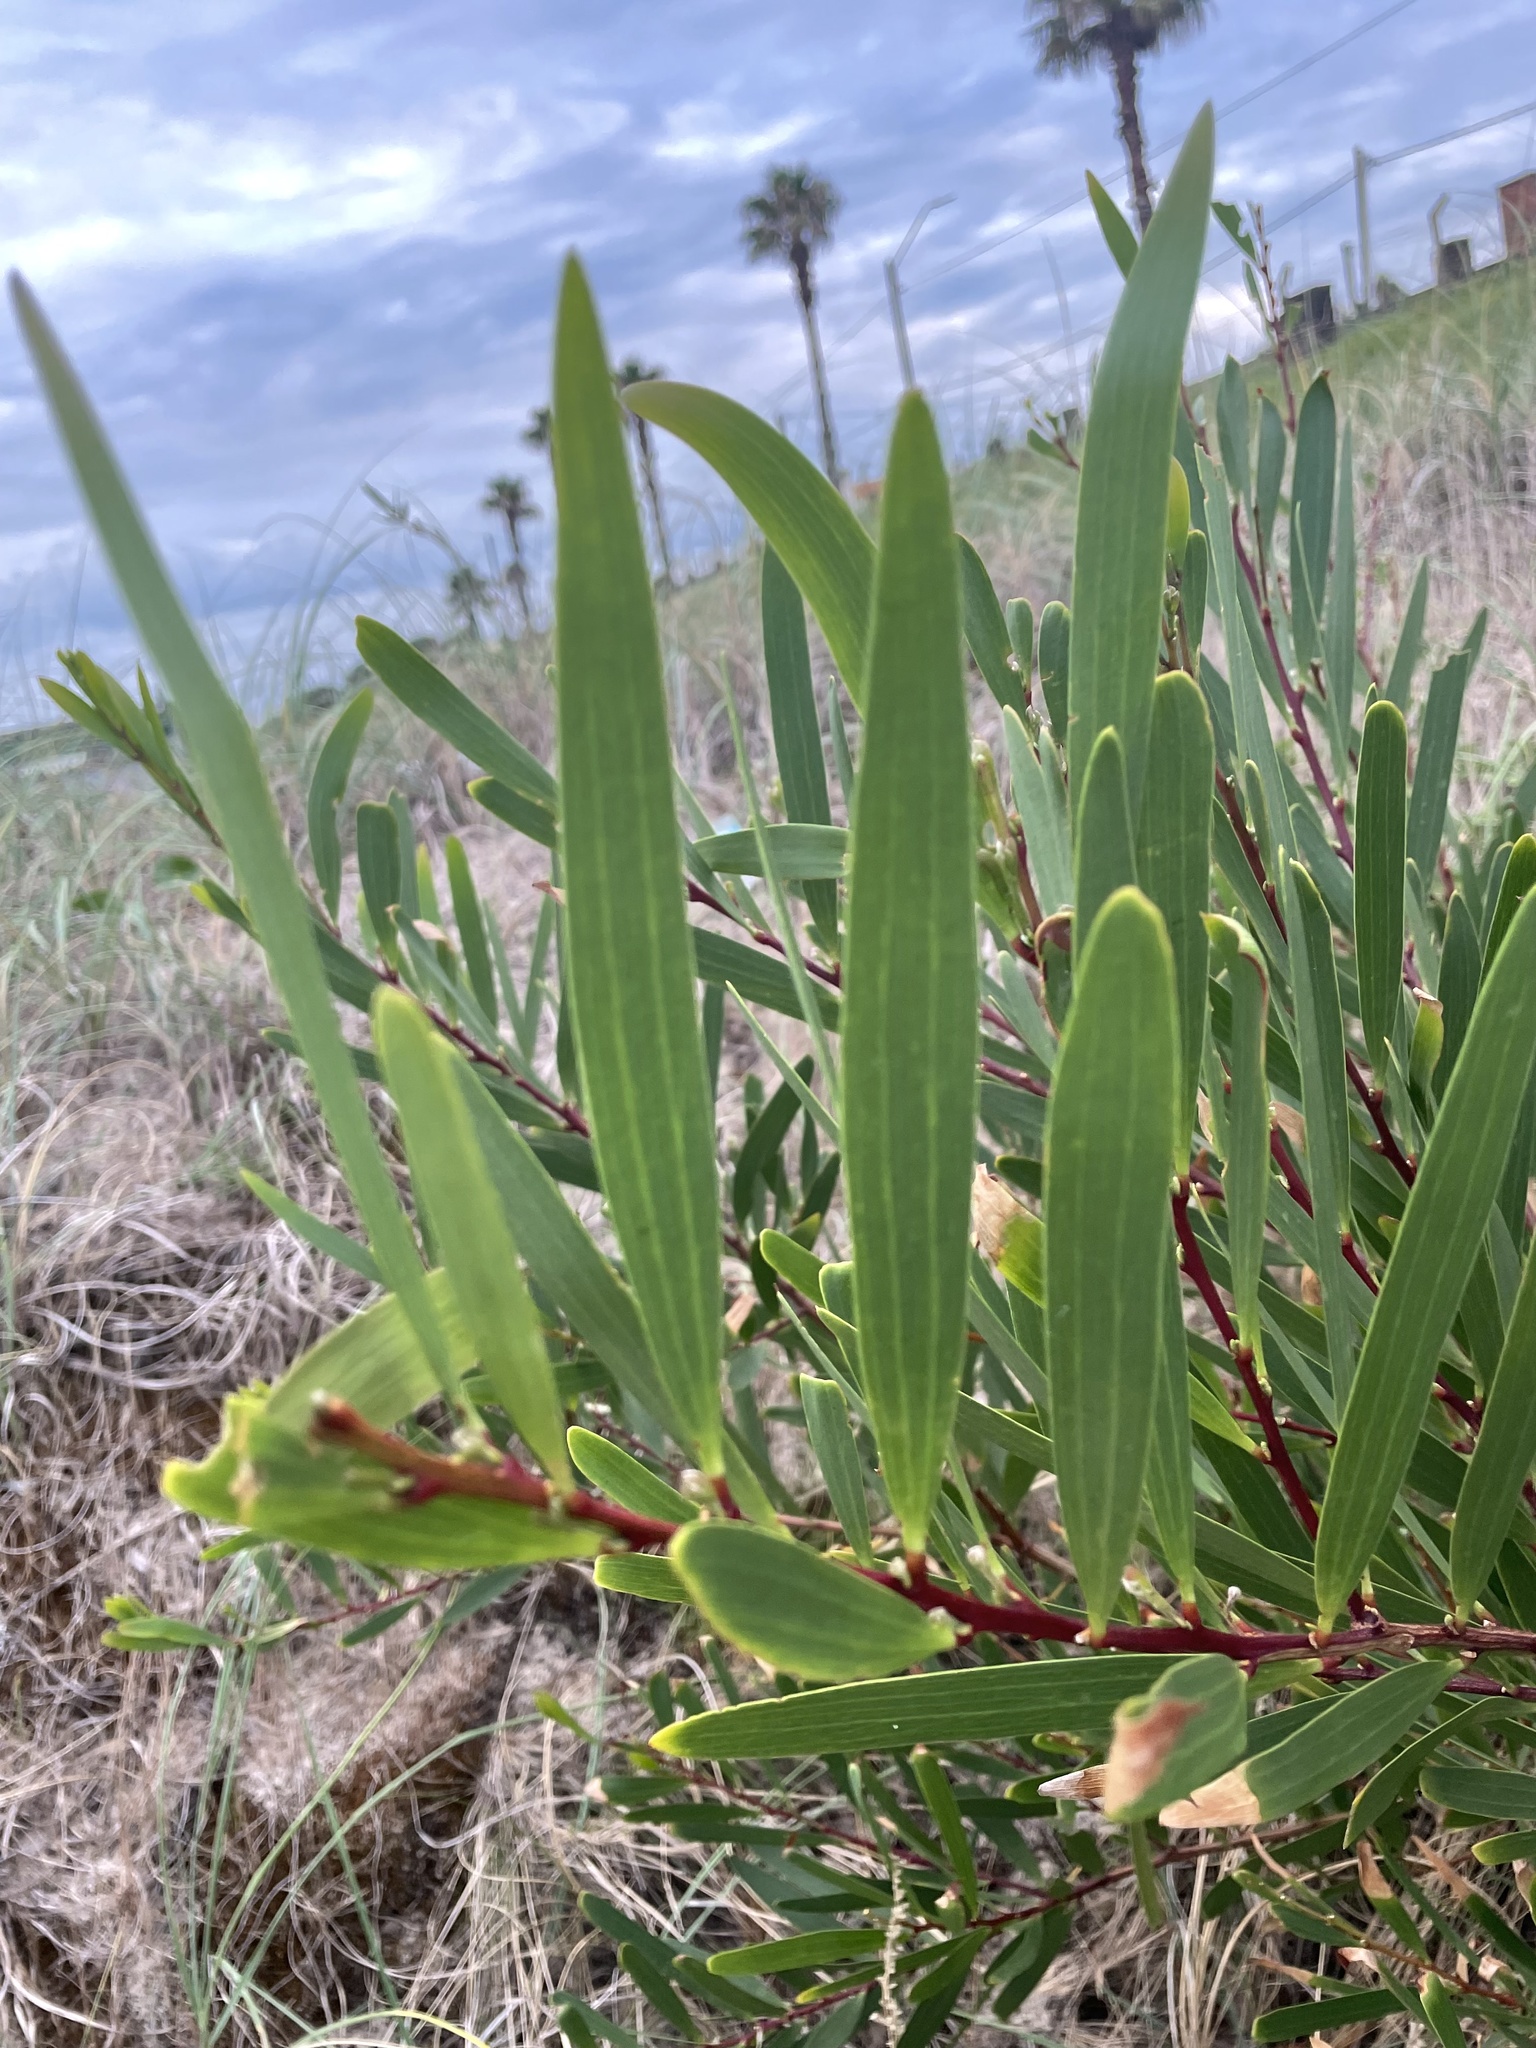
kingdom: Plantae
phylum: Tracheophyta
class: Magnoliopsida
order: Fabales
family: Fabaceae
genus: Acacia
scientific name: Acacia longifolia
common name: Sydney golden wattle
